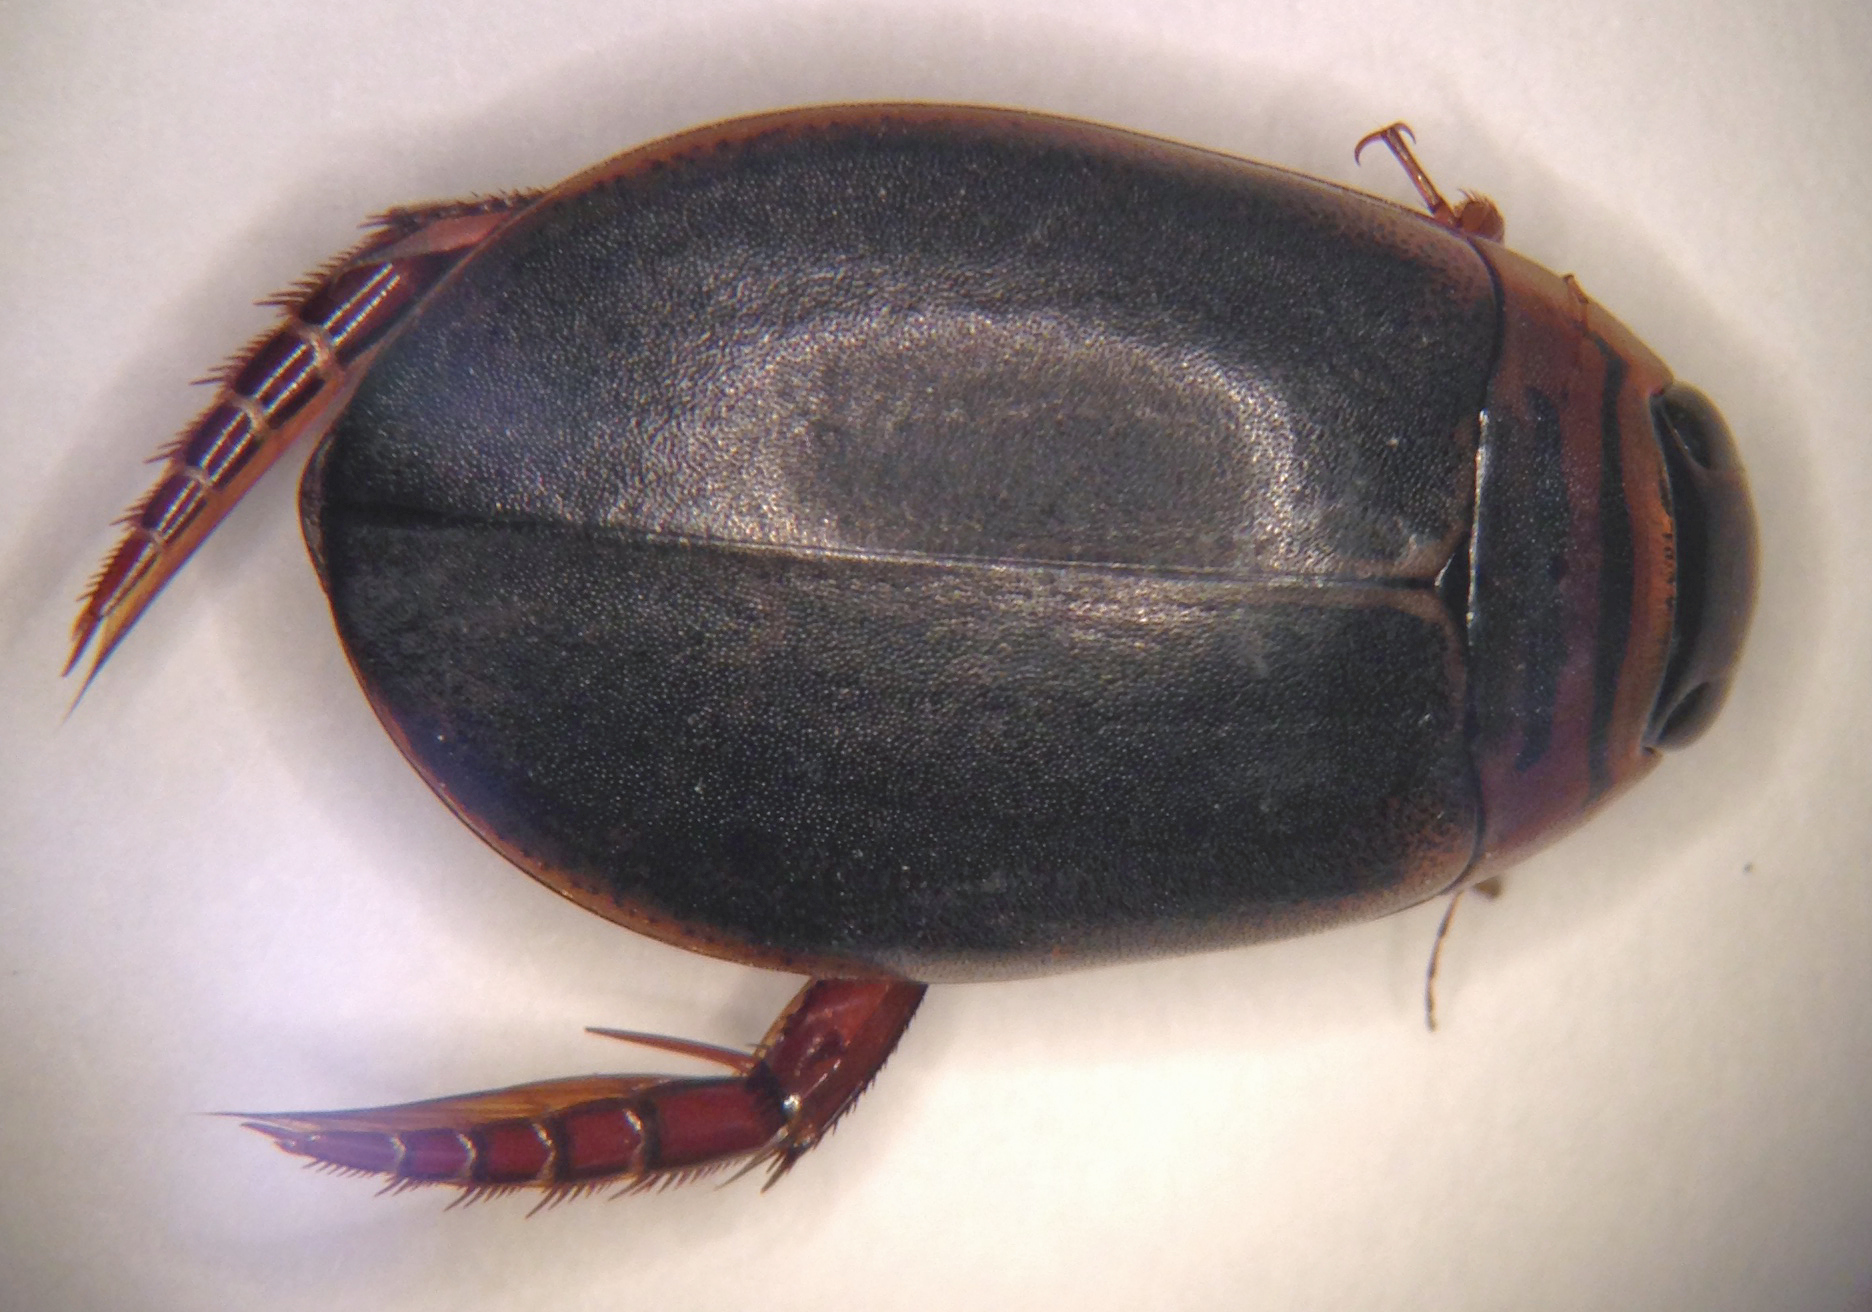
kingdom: Animalia
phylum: Arthropoda
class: Insecta
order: Coleoptera
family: Dytiscidae
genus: Acilius
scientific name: Acilius fraternus
